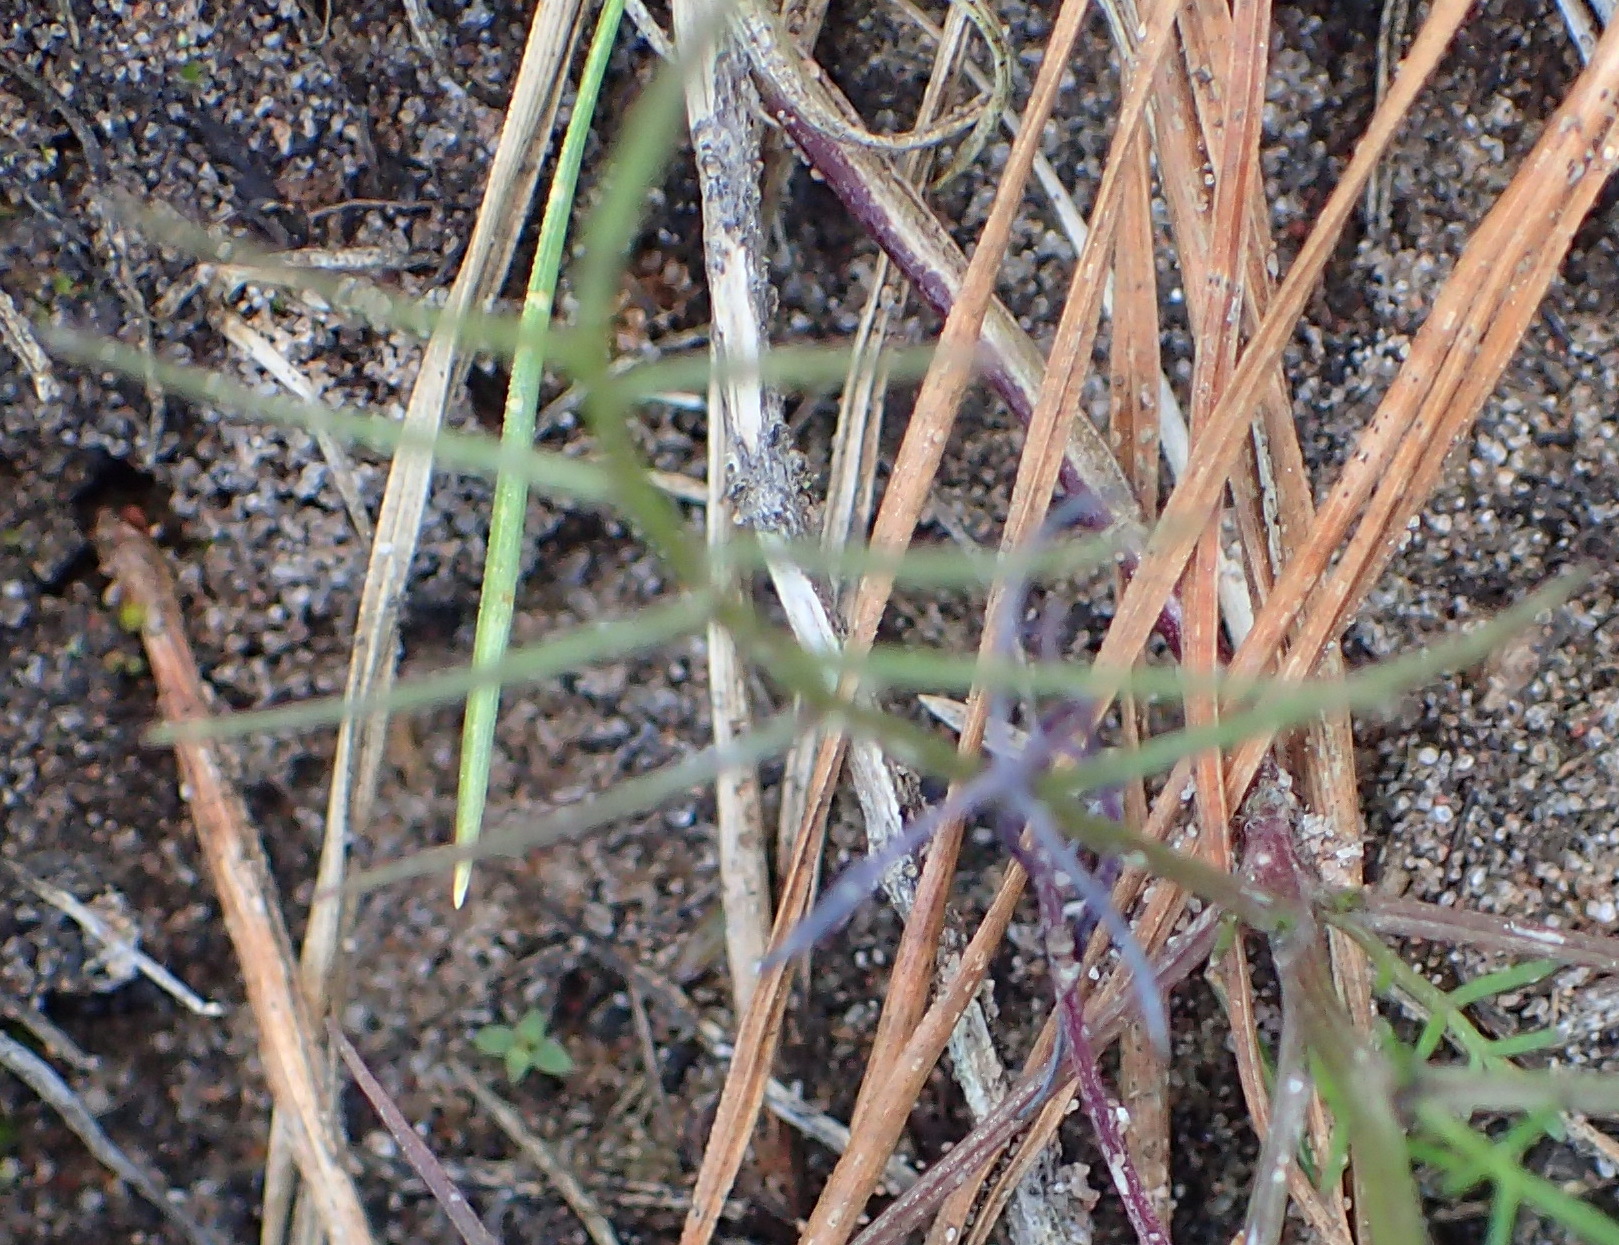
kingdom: Plantae
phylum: Tracheophyta
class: Magnoliopsida
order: Brassicales
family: Brassicaceae
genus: Heliophila
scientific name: Heliophila pendula
